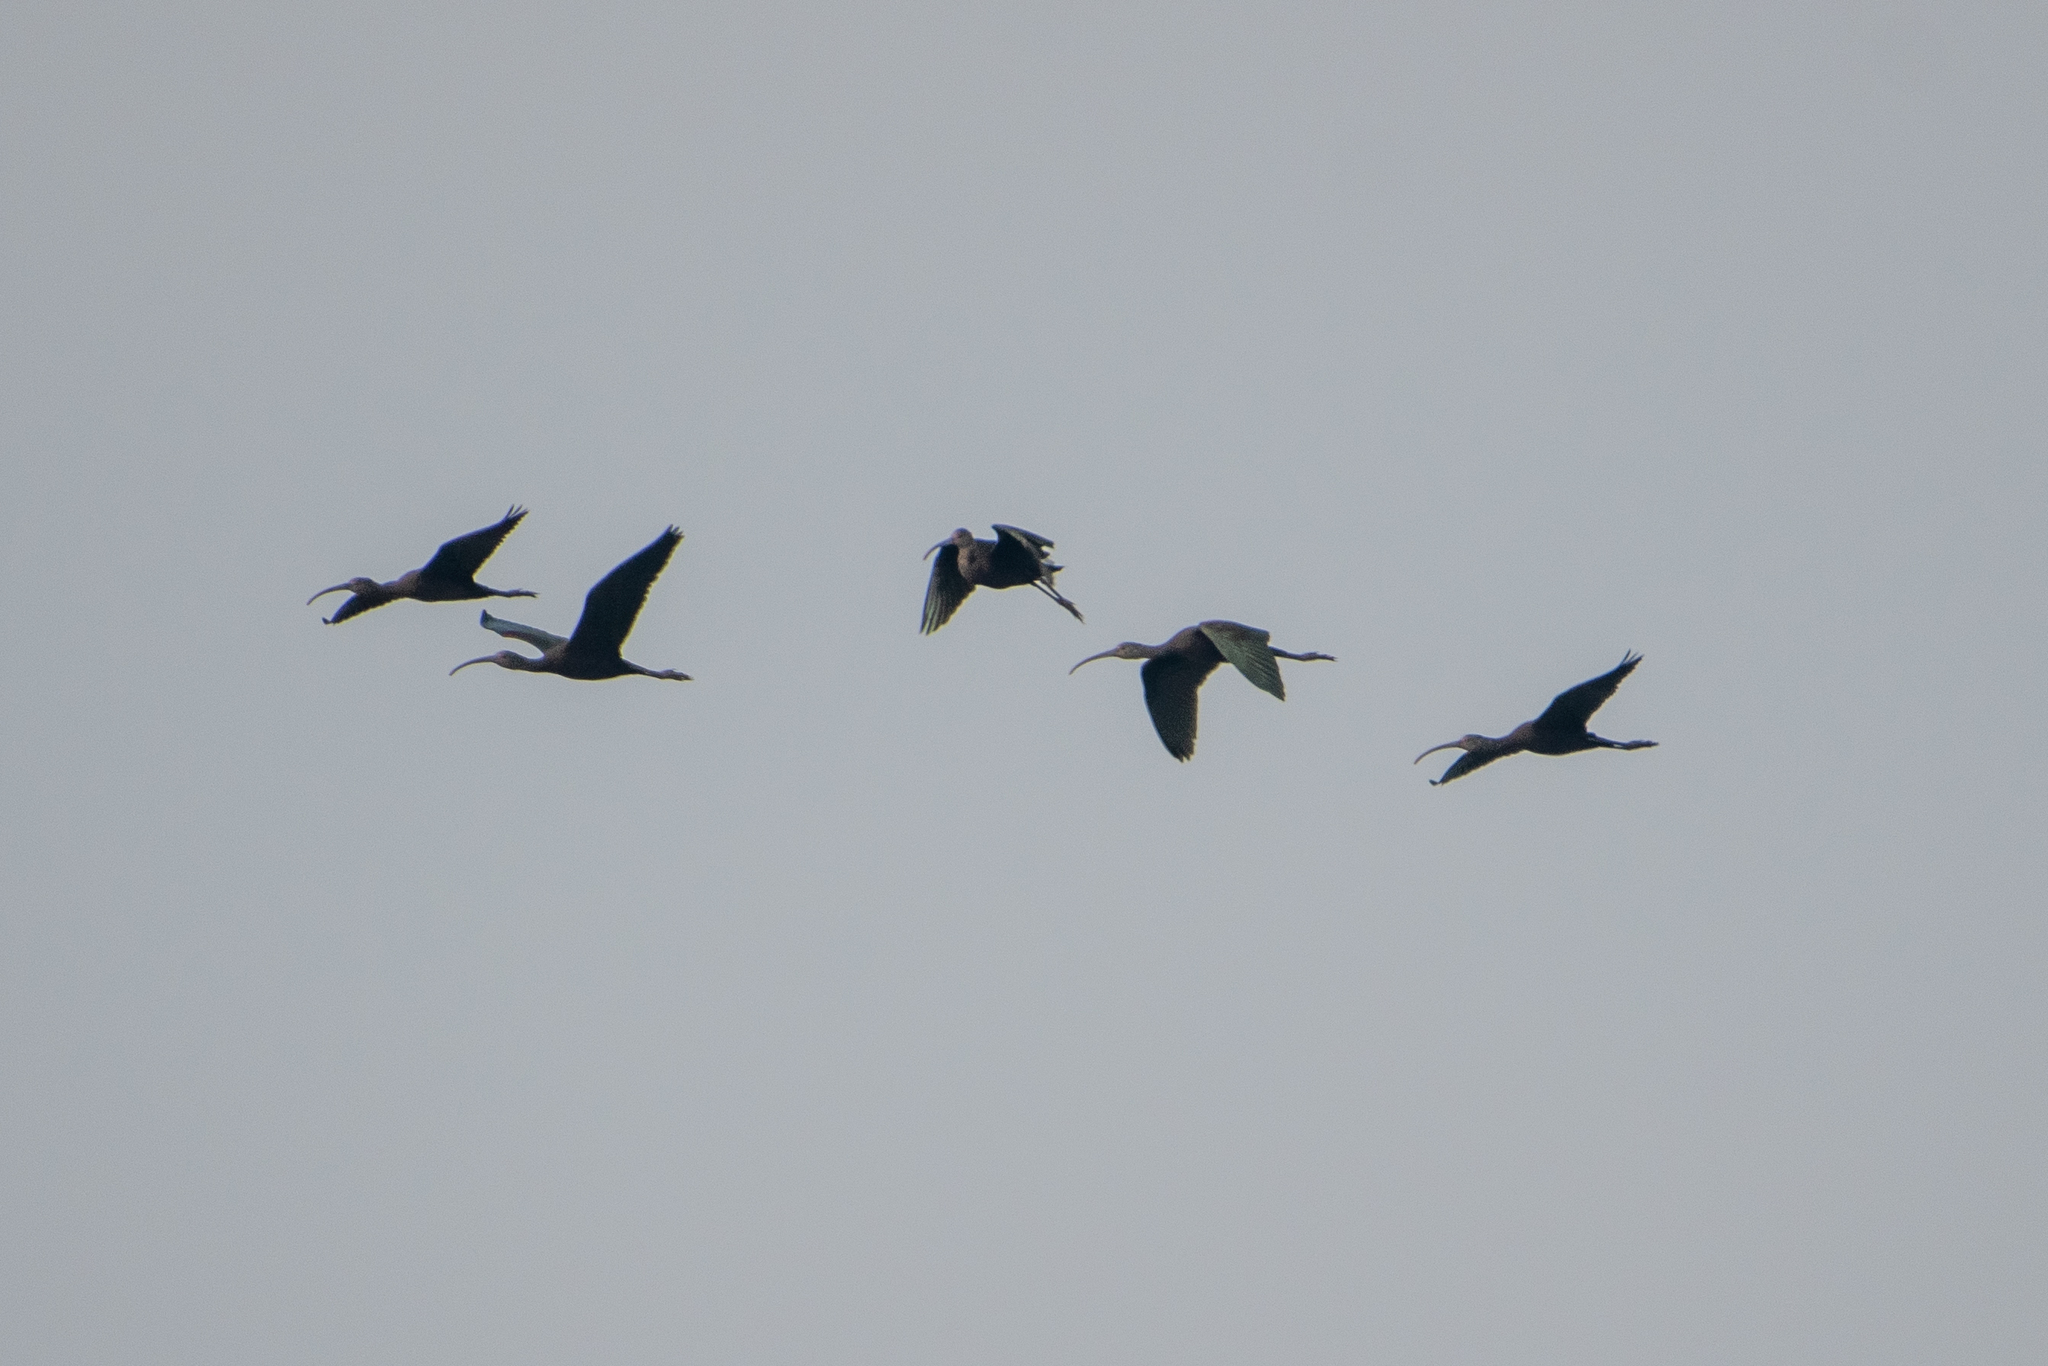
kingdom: Animalia
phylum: Chordata
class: Aves
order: Pelecaniformes
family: Threskiornithidae
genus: Plegadis
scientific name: Plegadis chihi
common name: White-faced ibis
